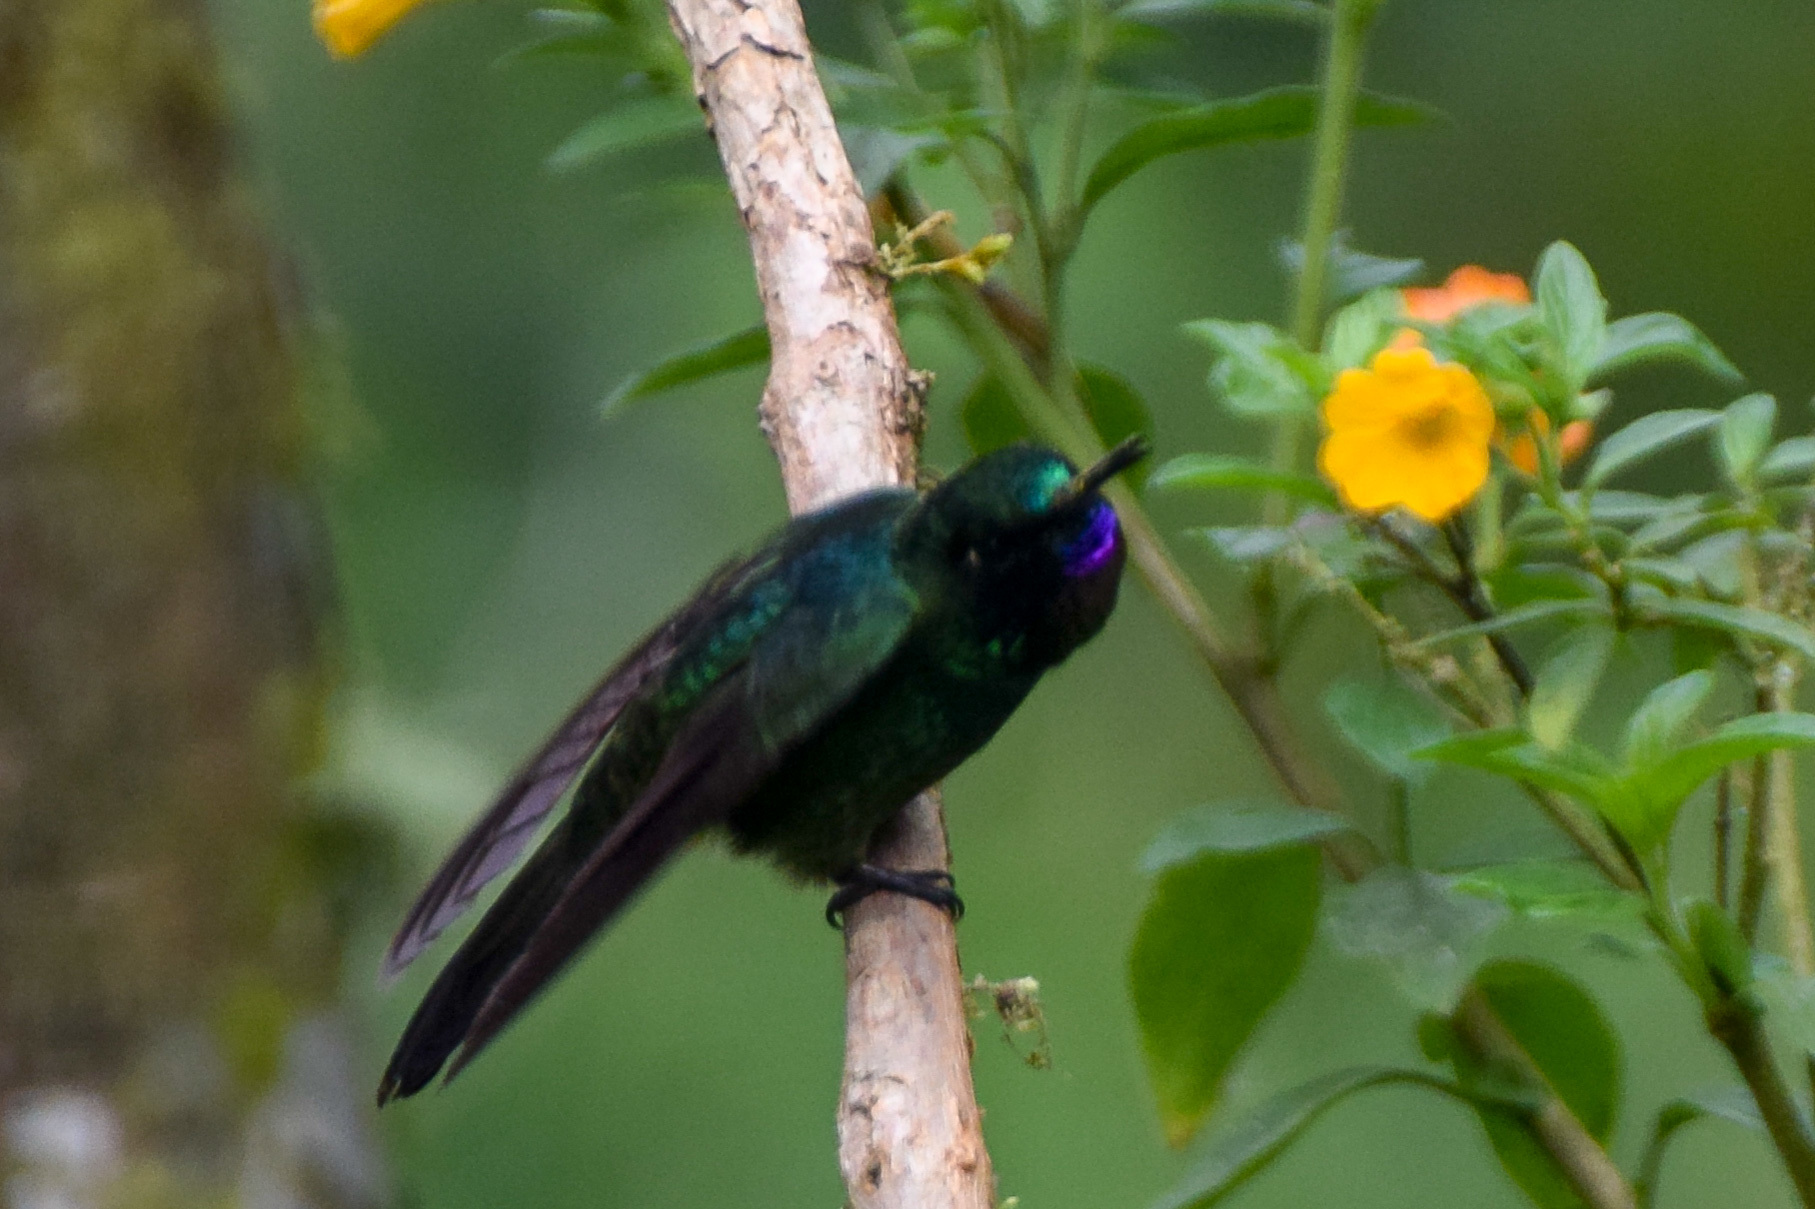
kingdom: Animalia
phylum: Chordata
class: Aves
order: Apodiformes
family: Trochilidae
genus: Heliangelus
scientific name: Heliangelus exortis
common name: Tourmaline sunangel
